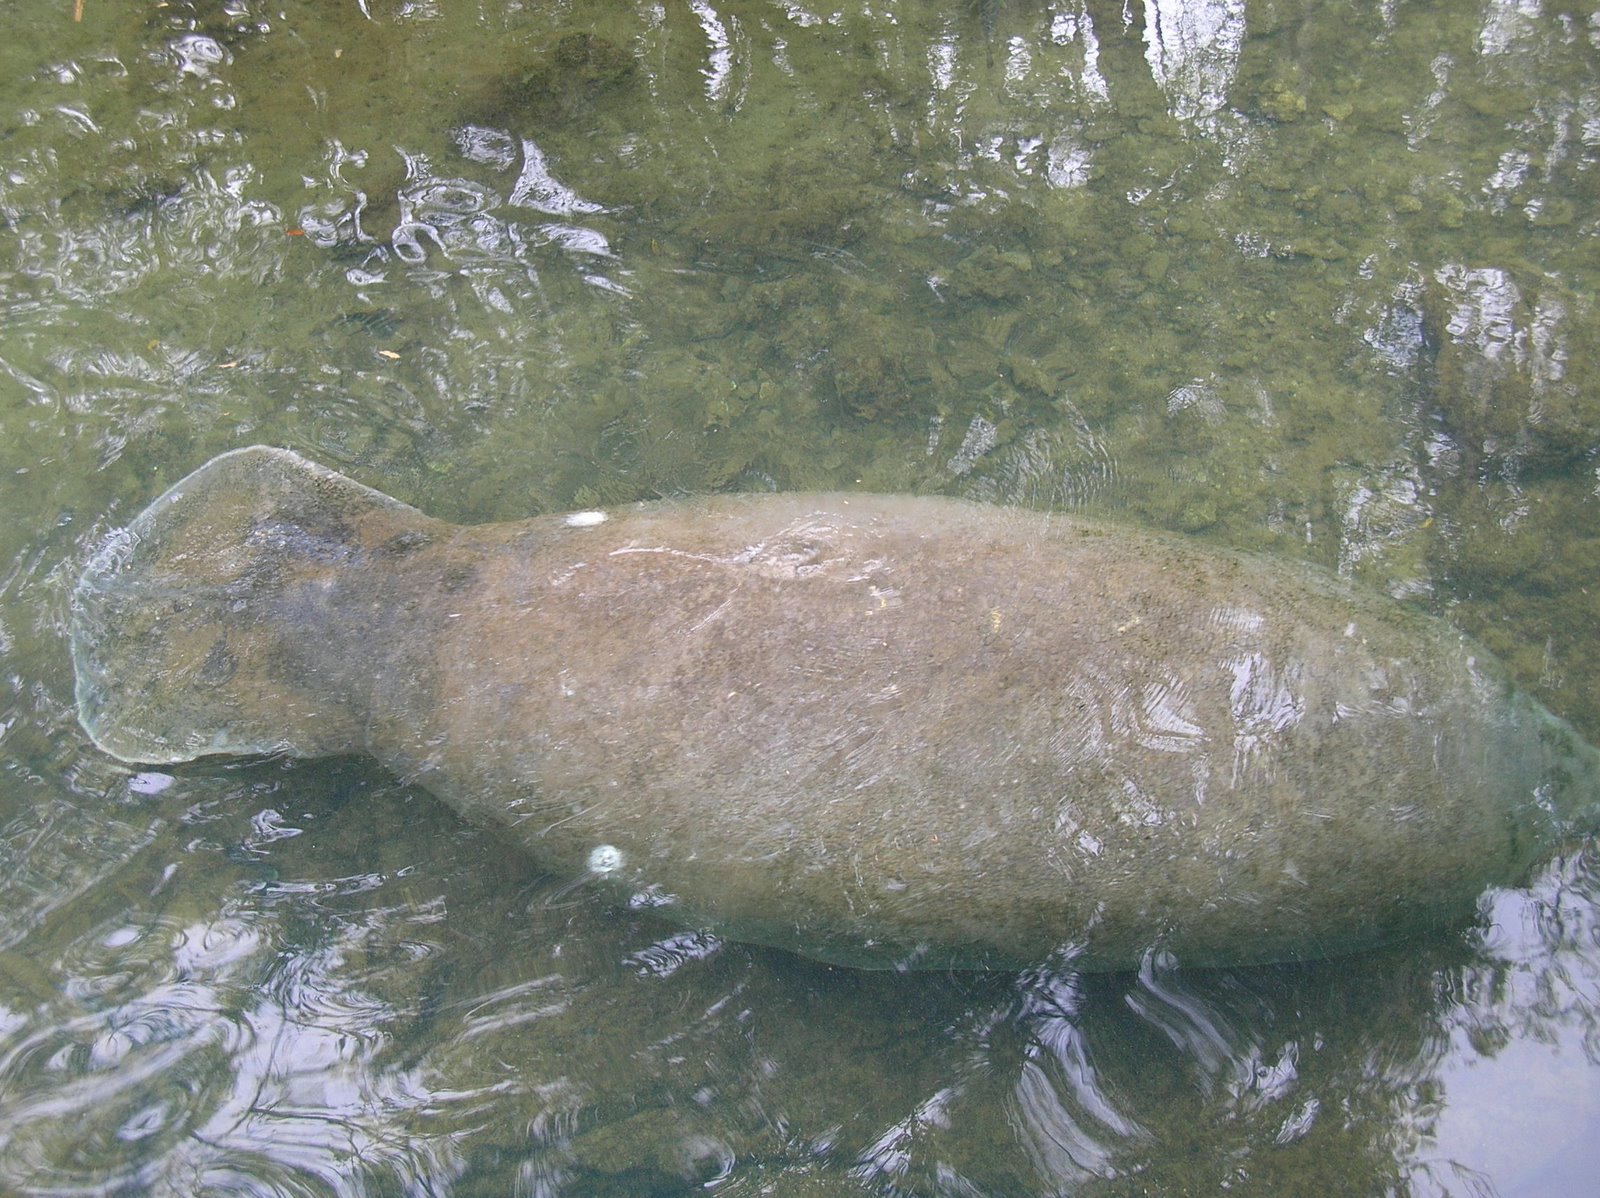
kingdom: Animalia
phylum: Chordata
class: Mammalia
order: Sirenia
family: Trichechidae
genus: Trichechus
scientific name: Trichechus manatus
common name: West indian manatee
